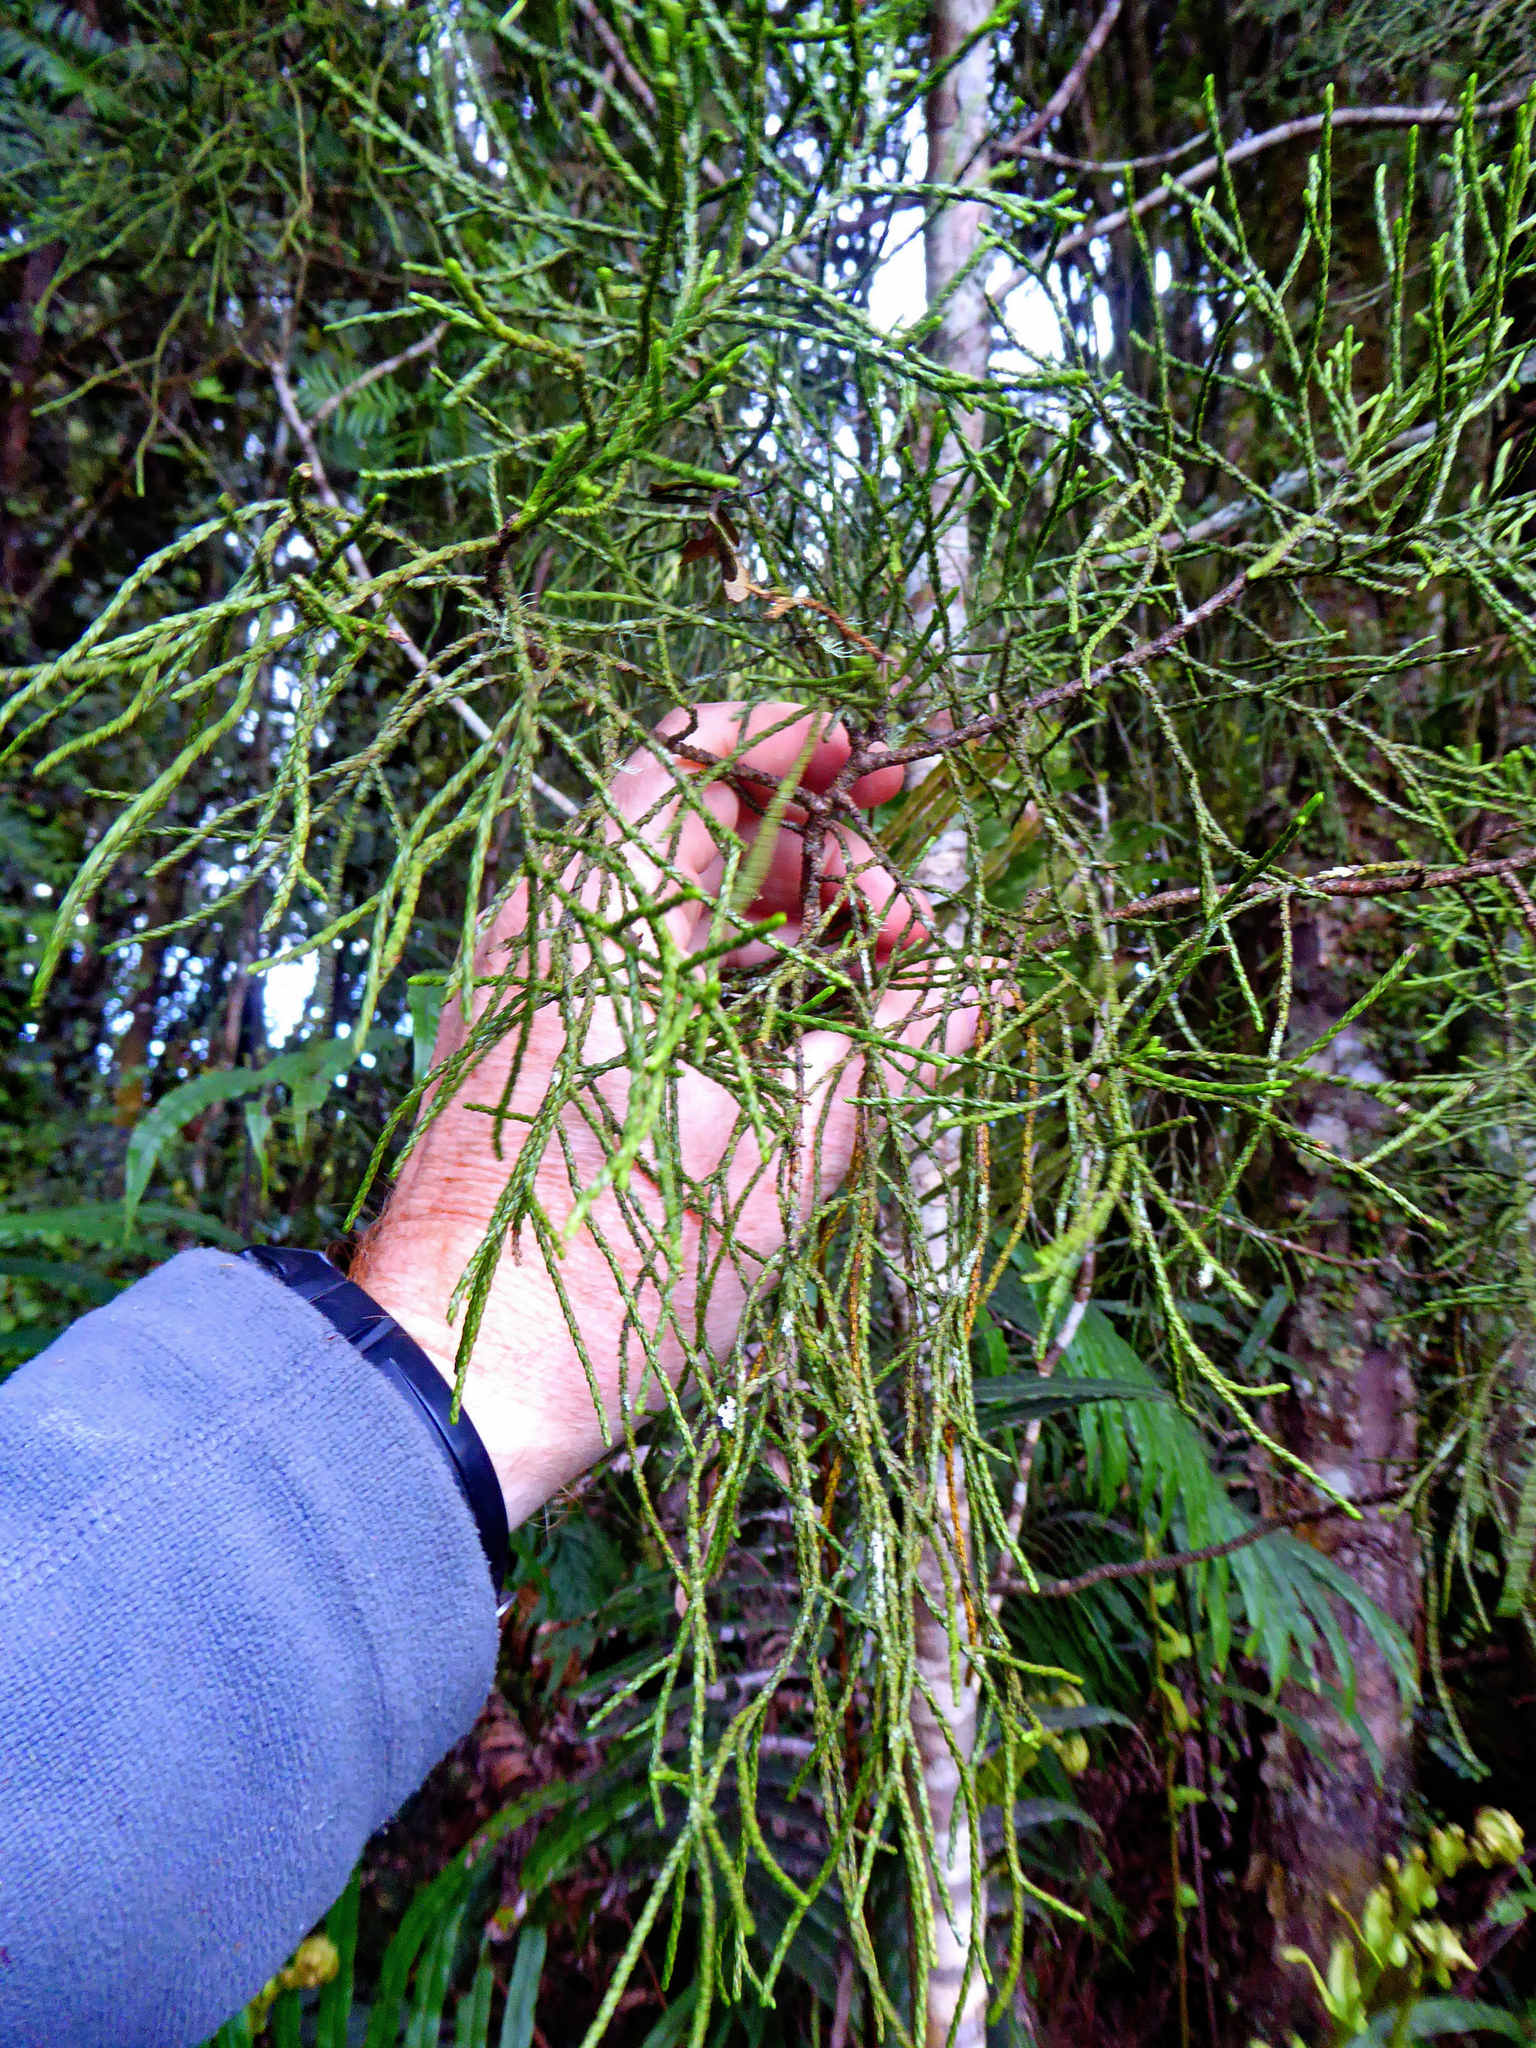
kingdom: Plantae
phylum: Tracheophyta
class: Pinopsida
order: Pinales
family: Podocarpaceae
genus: Manoao
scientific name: Manoao colensoi
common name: Silver pine
